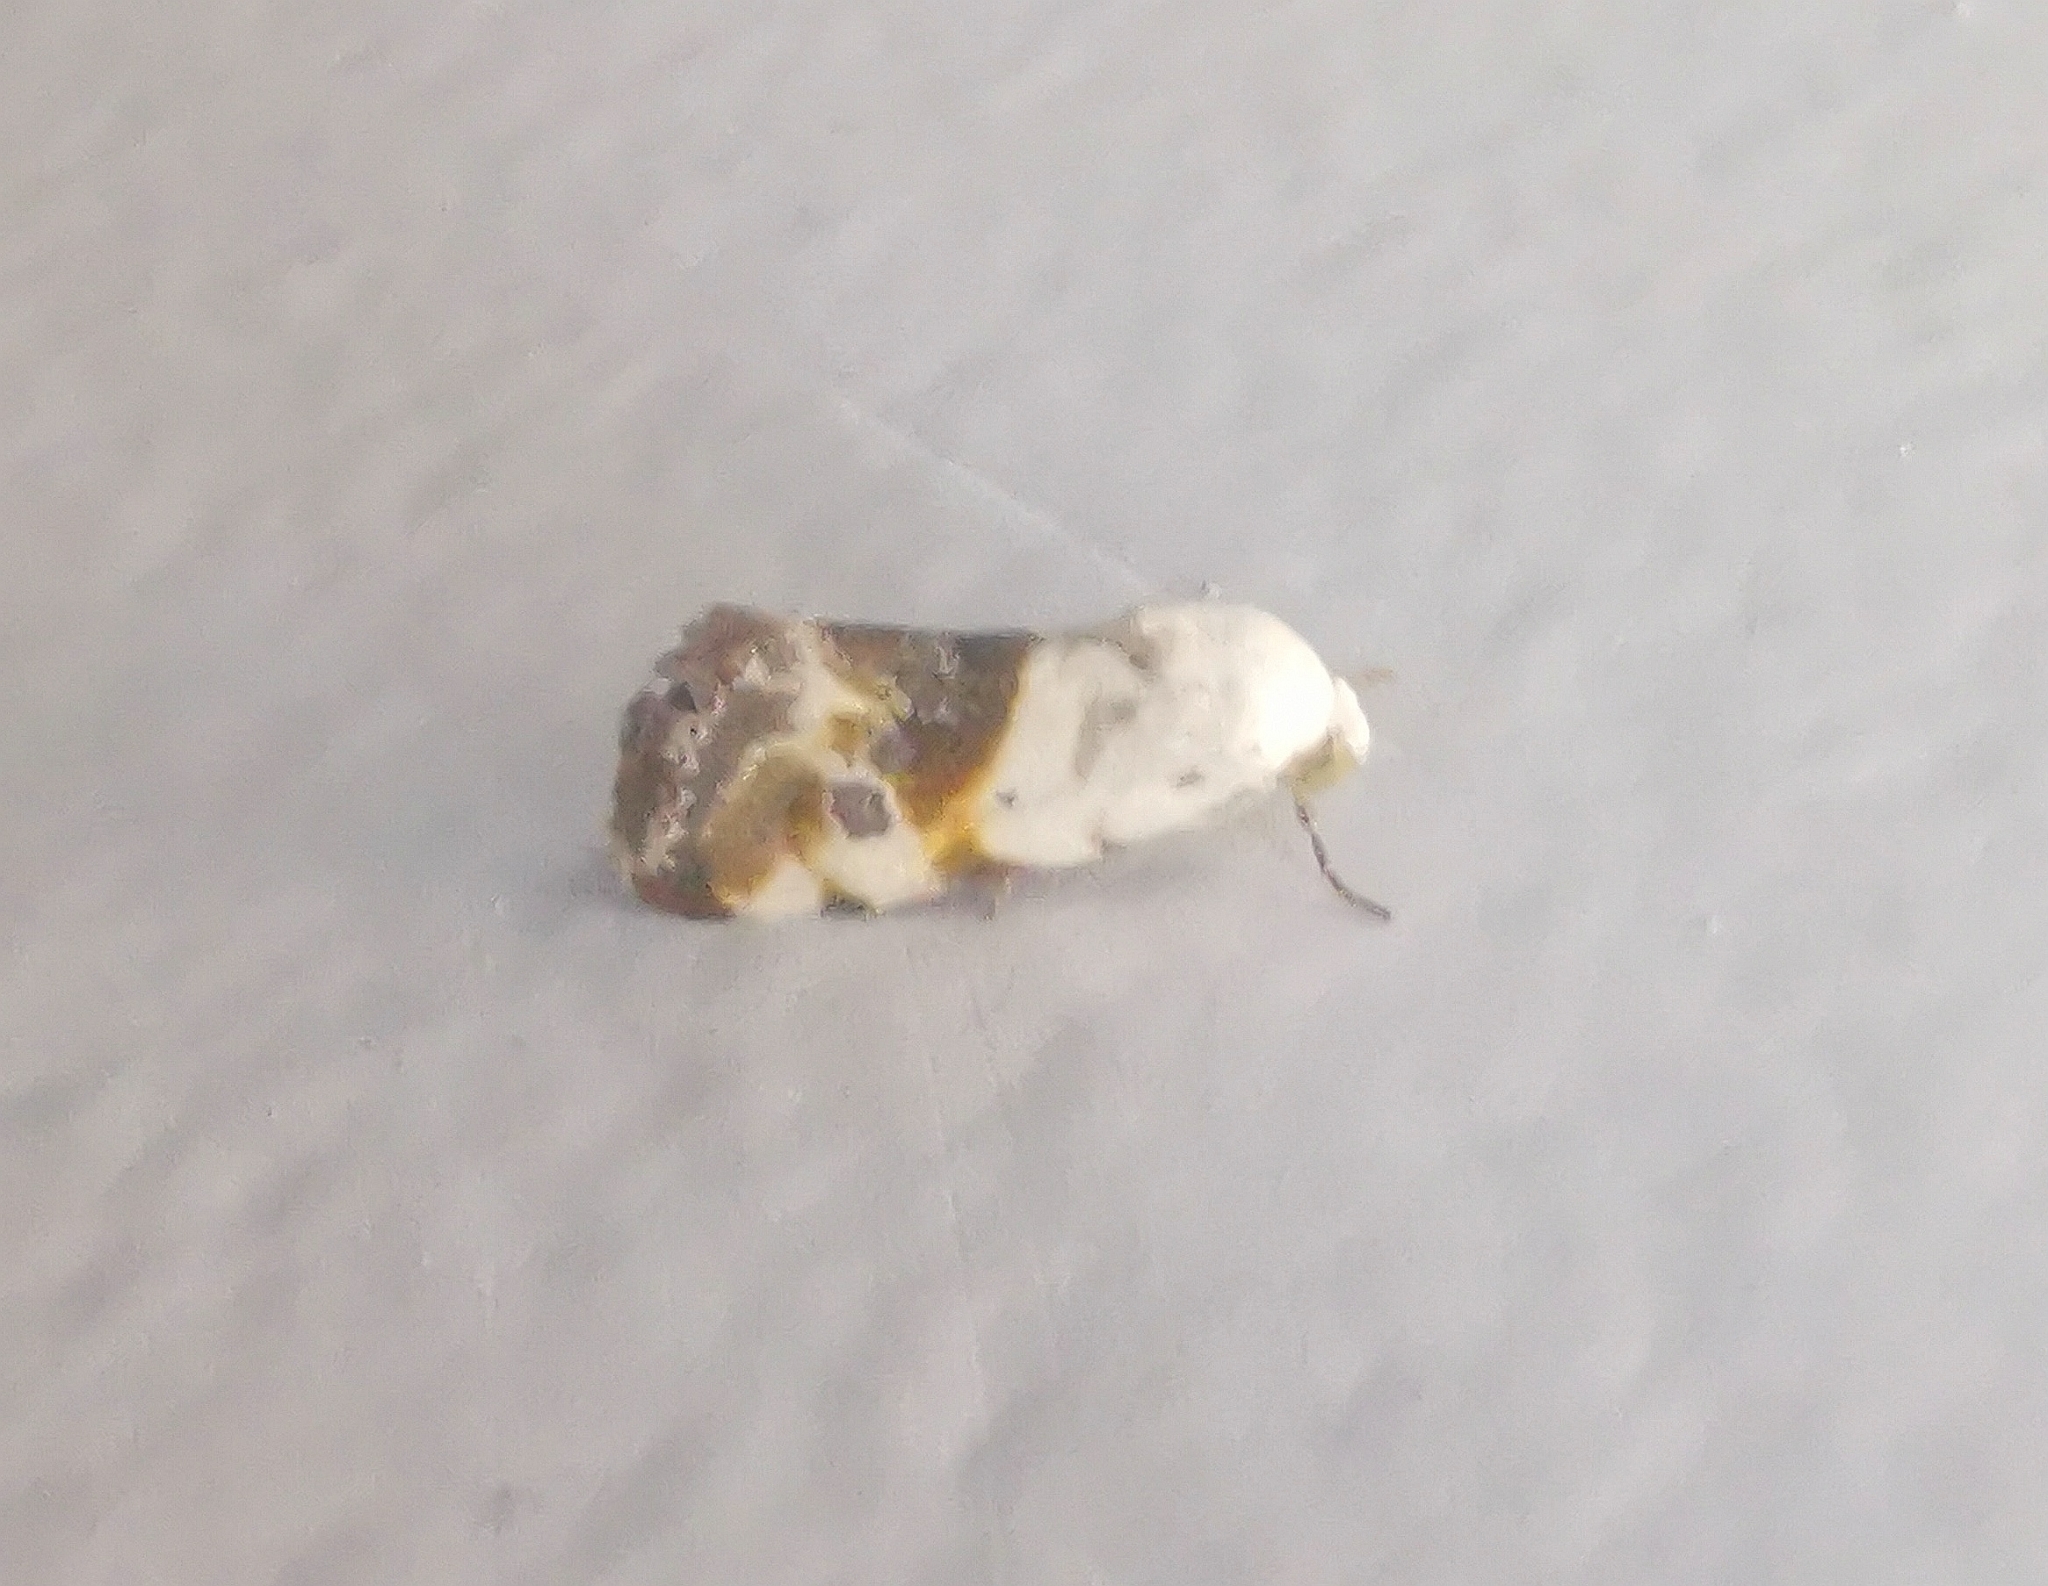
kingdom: Animalia
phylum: Arthropoda
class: Insecta
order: Lepidoptera
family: Noctuidae
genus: Acontia
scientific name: Acontia candefacta
